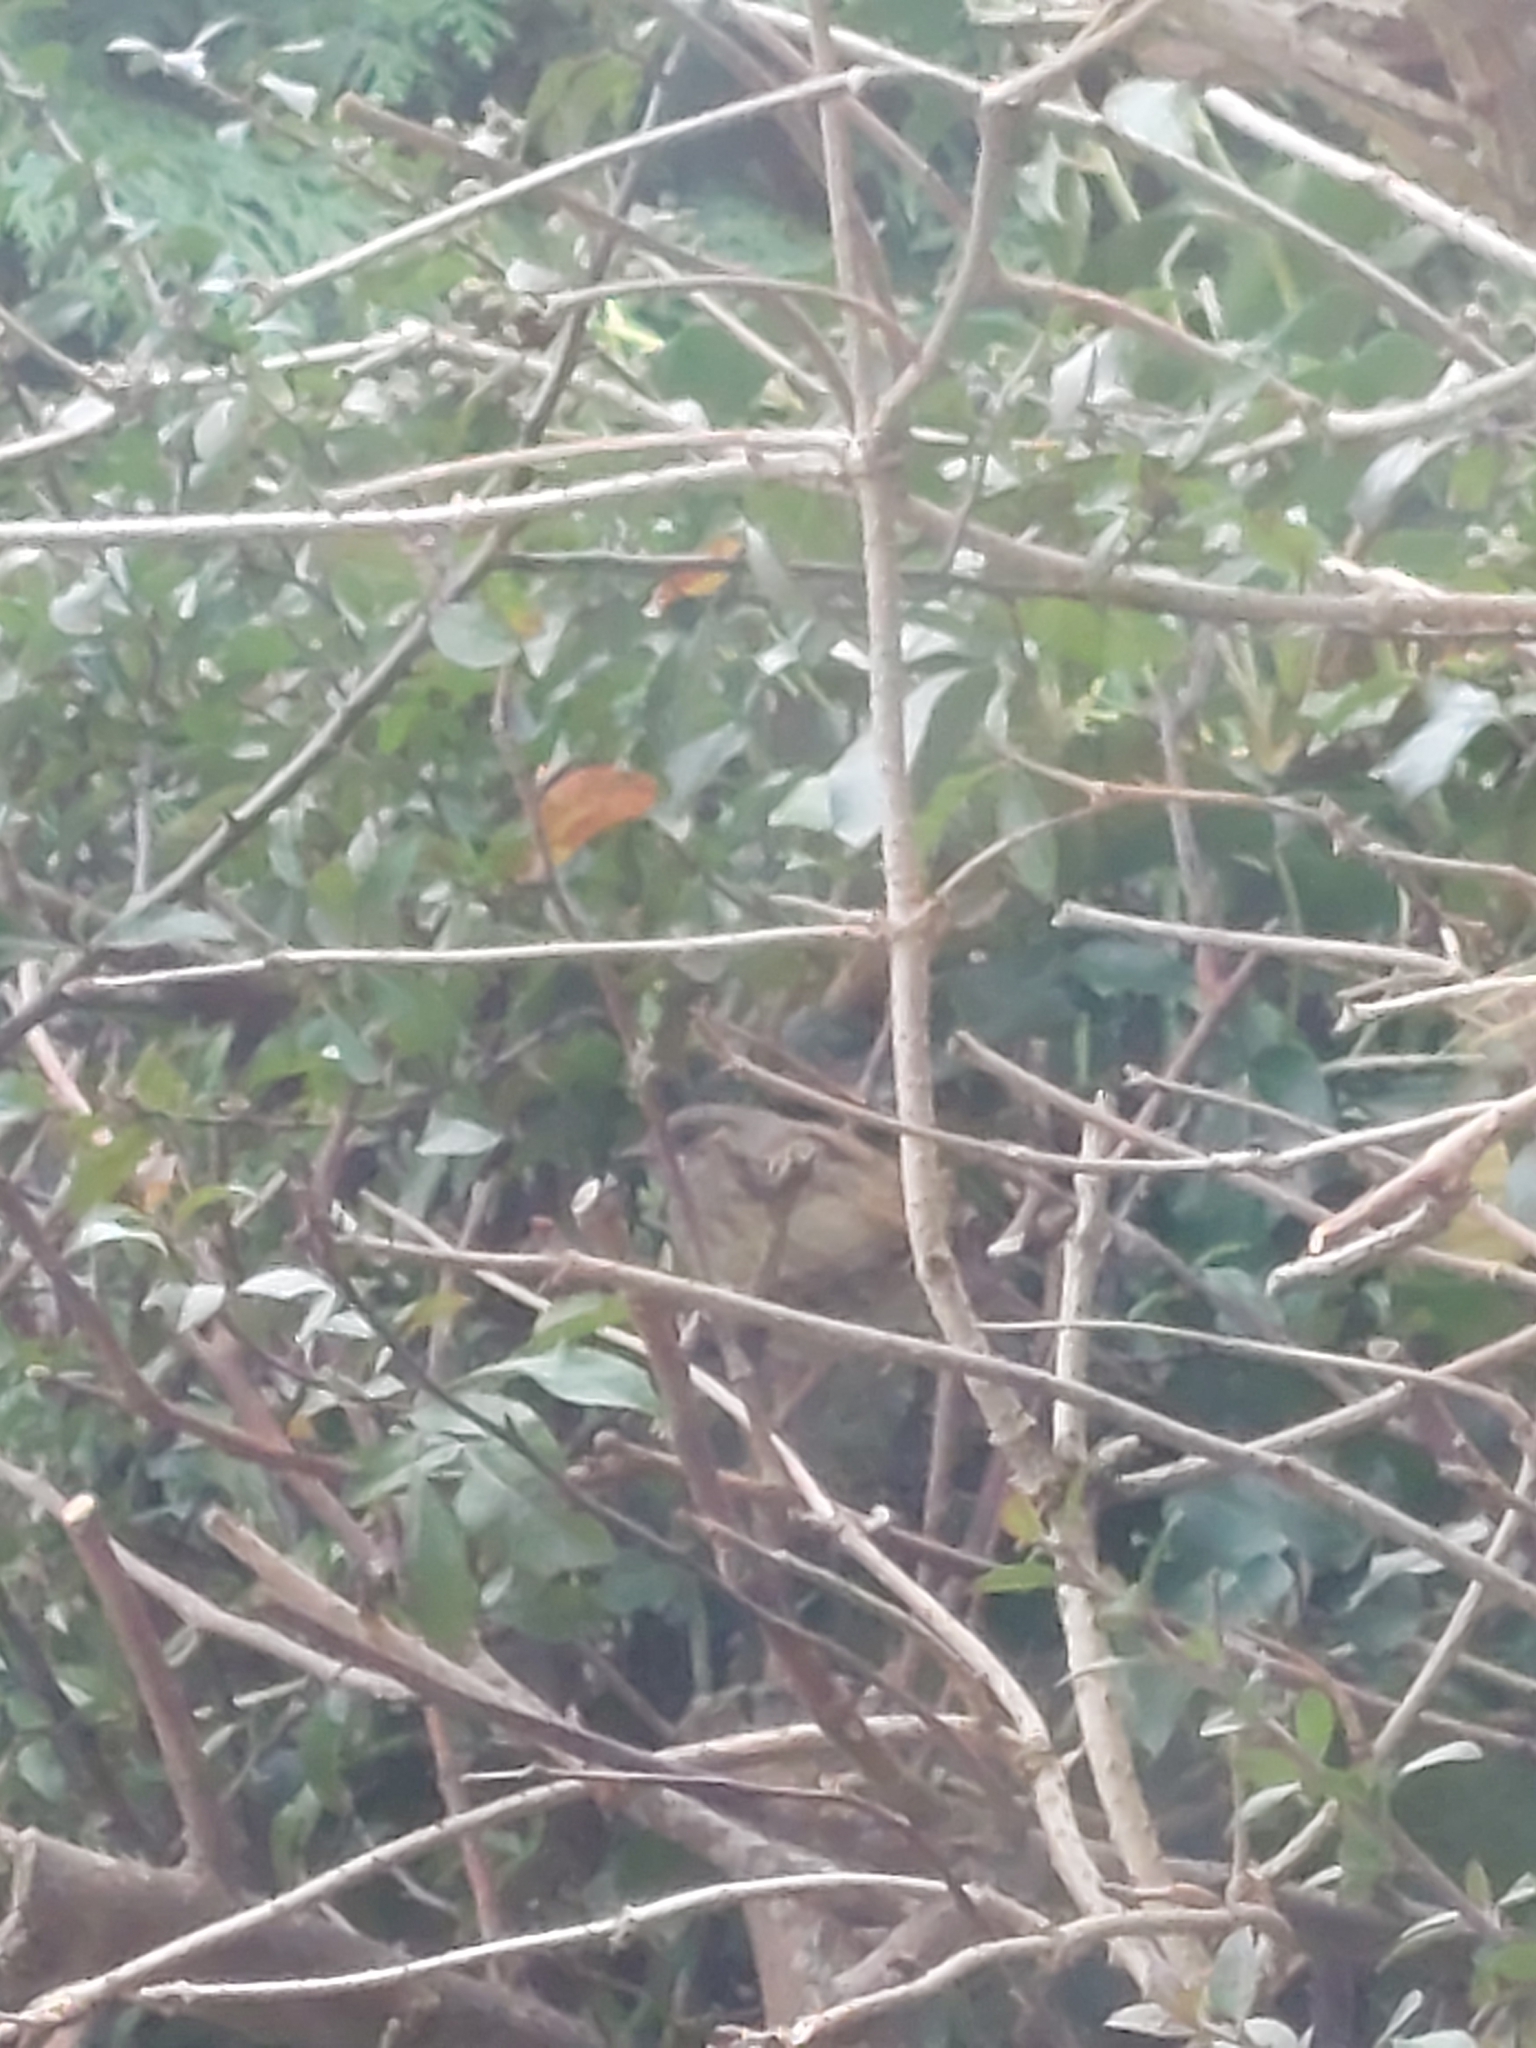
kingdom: Animalia
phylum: Chordata
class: Aves
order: Passeriformes
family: Prunellidae
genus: Prunella
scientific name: Prunella modularis
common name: Dunnock
